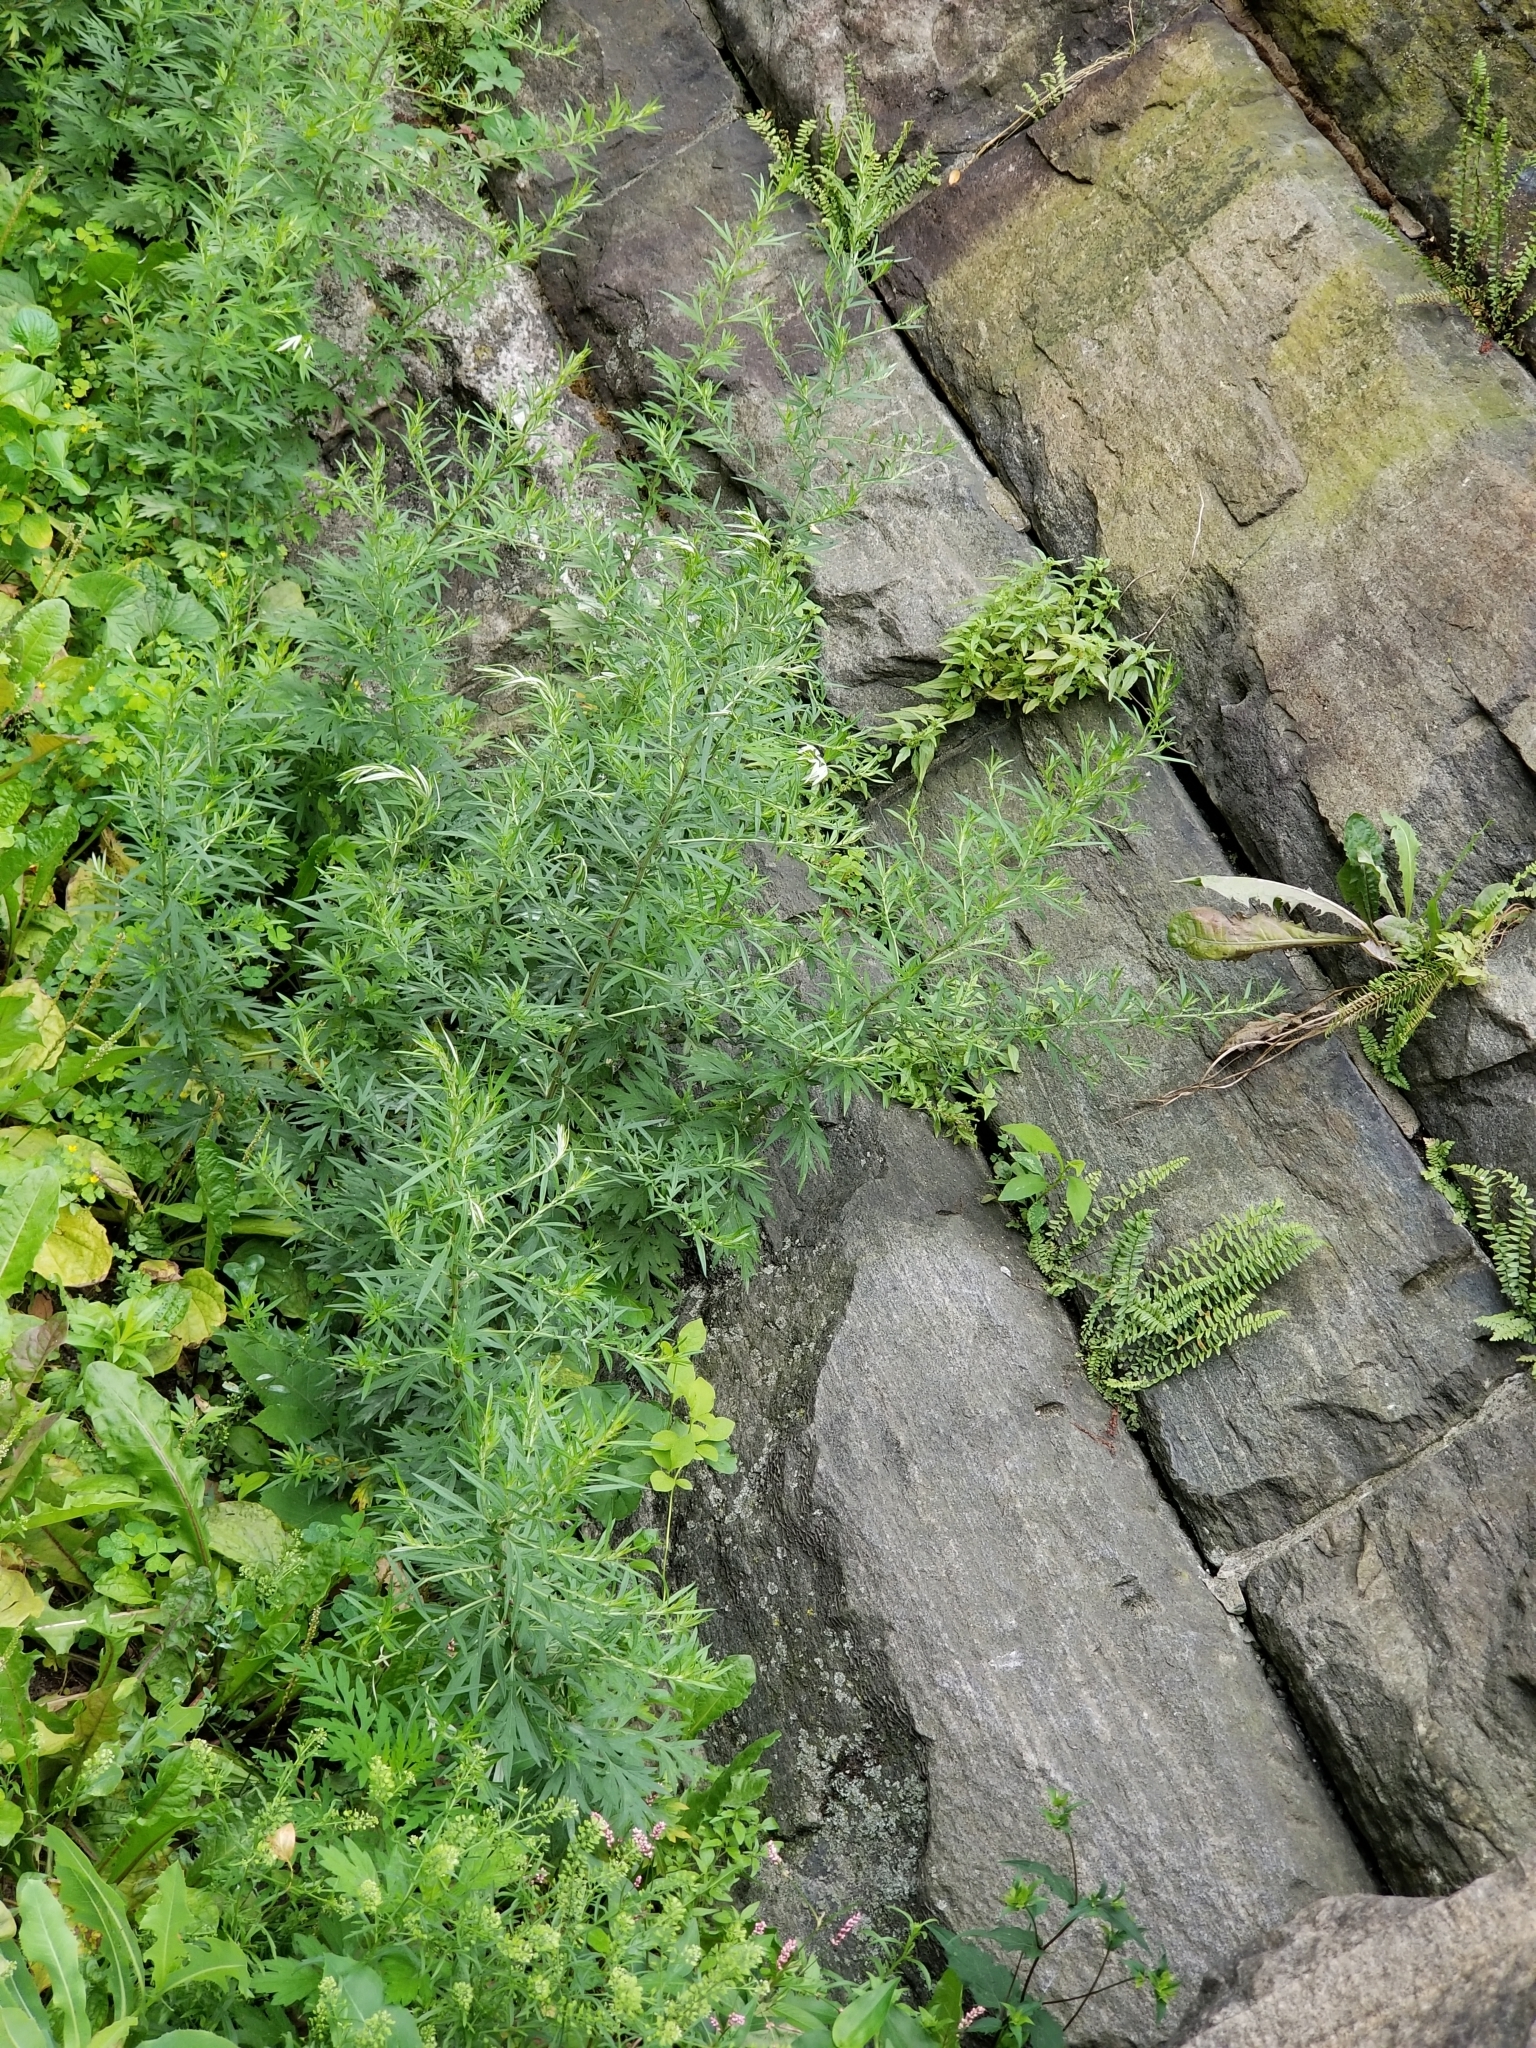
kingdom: Plantae
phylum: Tracheophyta
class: Magnoliopsida
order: Asterales
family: Asteraceae
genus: Artemisia
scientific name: Artemisia vulgaris
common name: Mugwort
